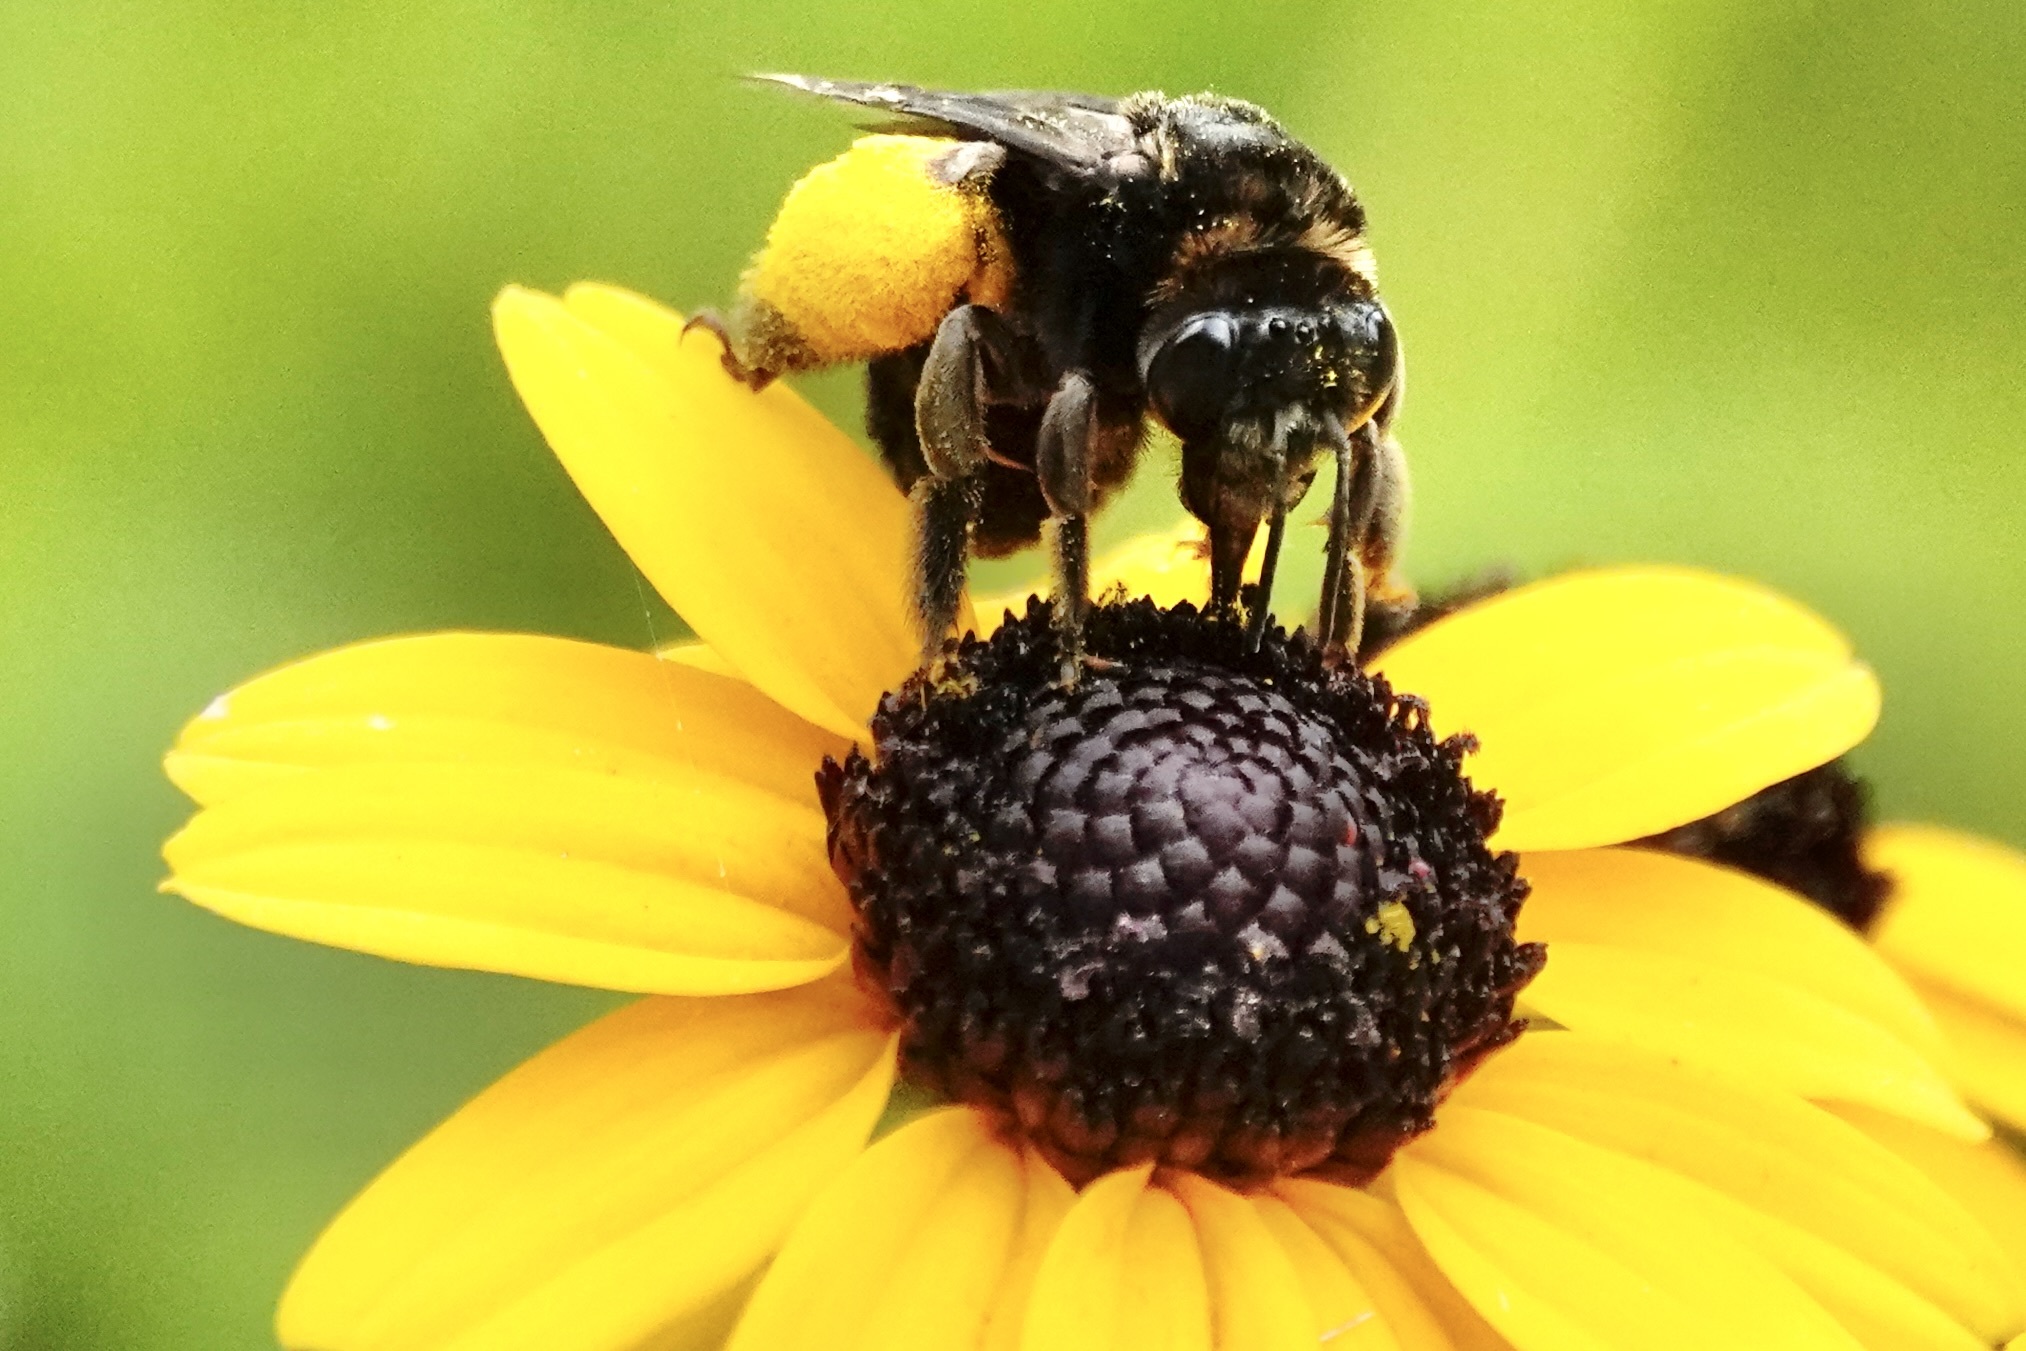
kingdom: Animalia
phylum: Arthropoda
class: Insecta
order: Hymenoptera
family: Apidae
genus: Svastra
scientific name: Svastra obliqua
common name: Oblique longhorn
